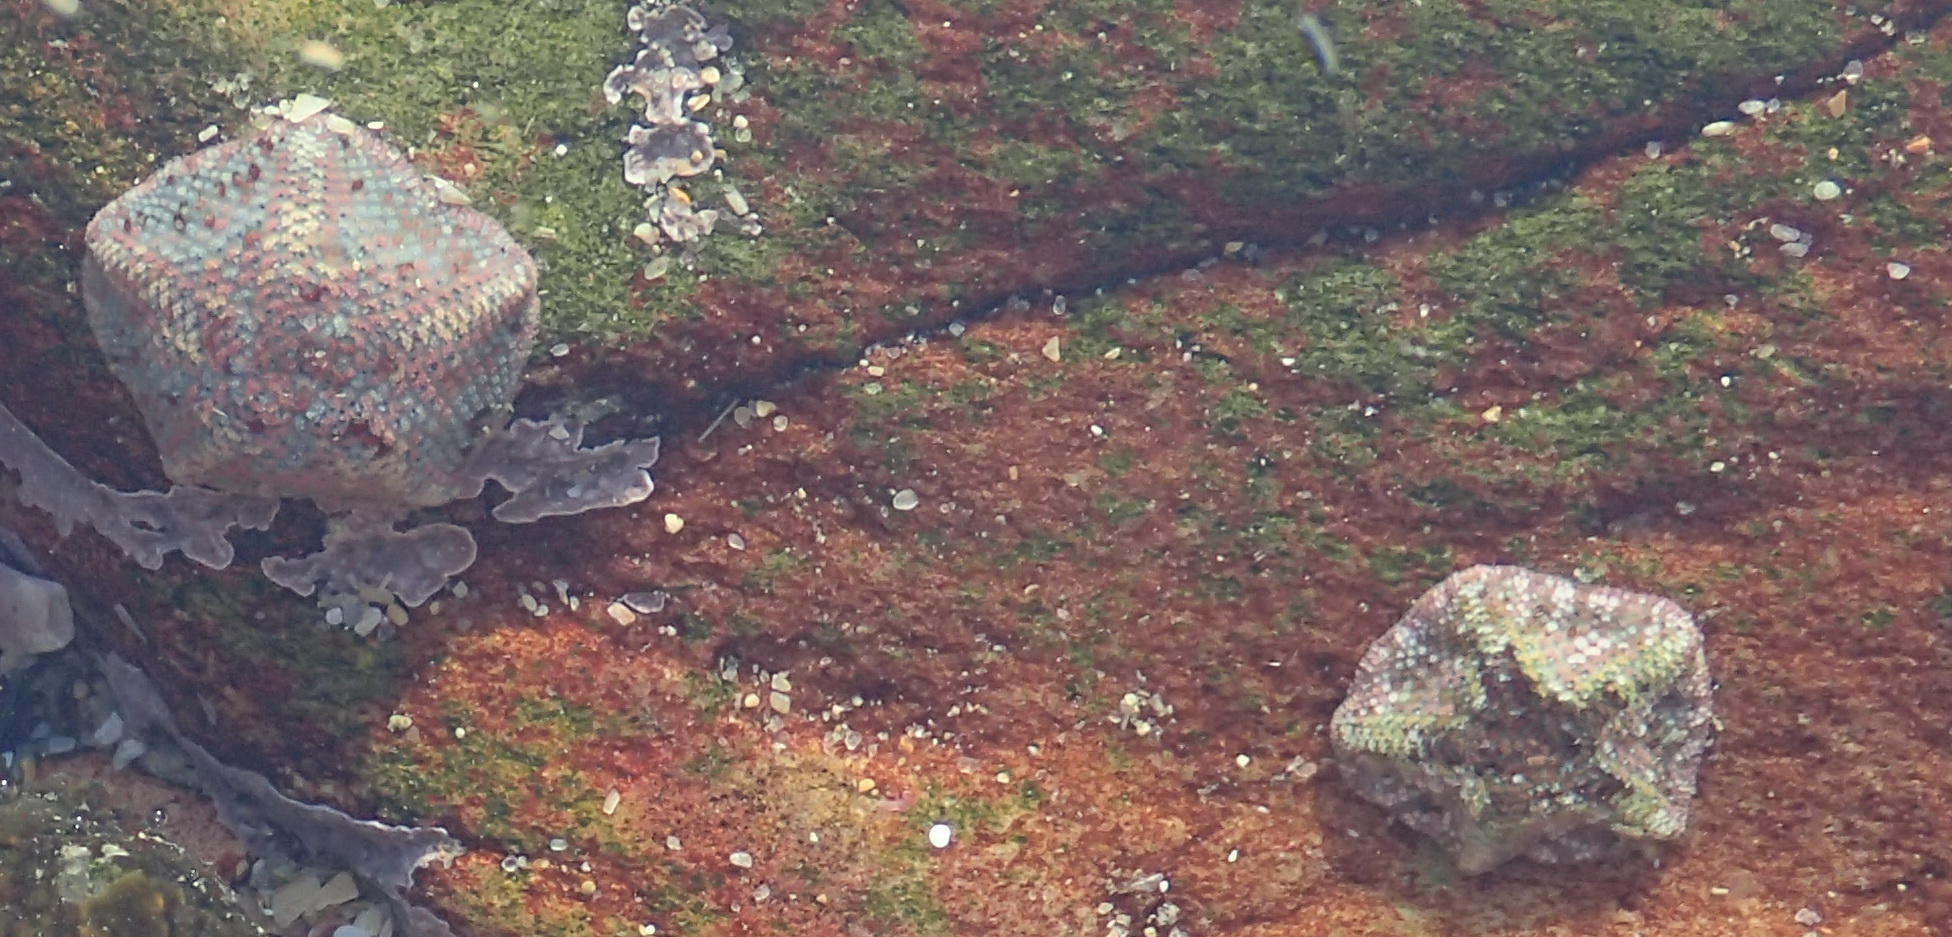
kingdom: Animalia
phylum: Echinodermata
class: Asteroidea
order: Valvatida
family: Asterinidae
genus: Parvulastra
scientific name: Parvulastra exigua
